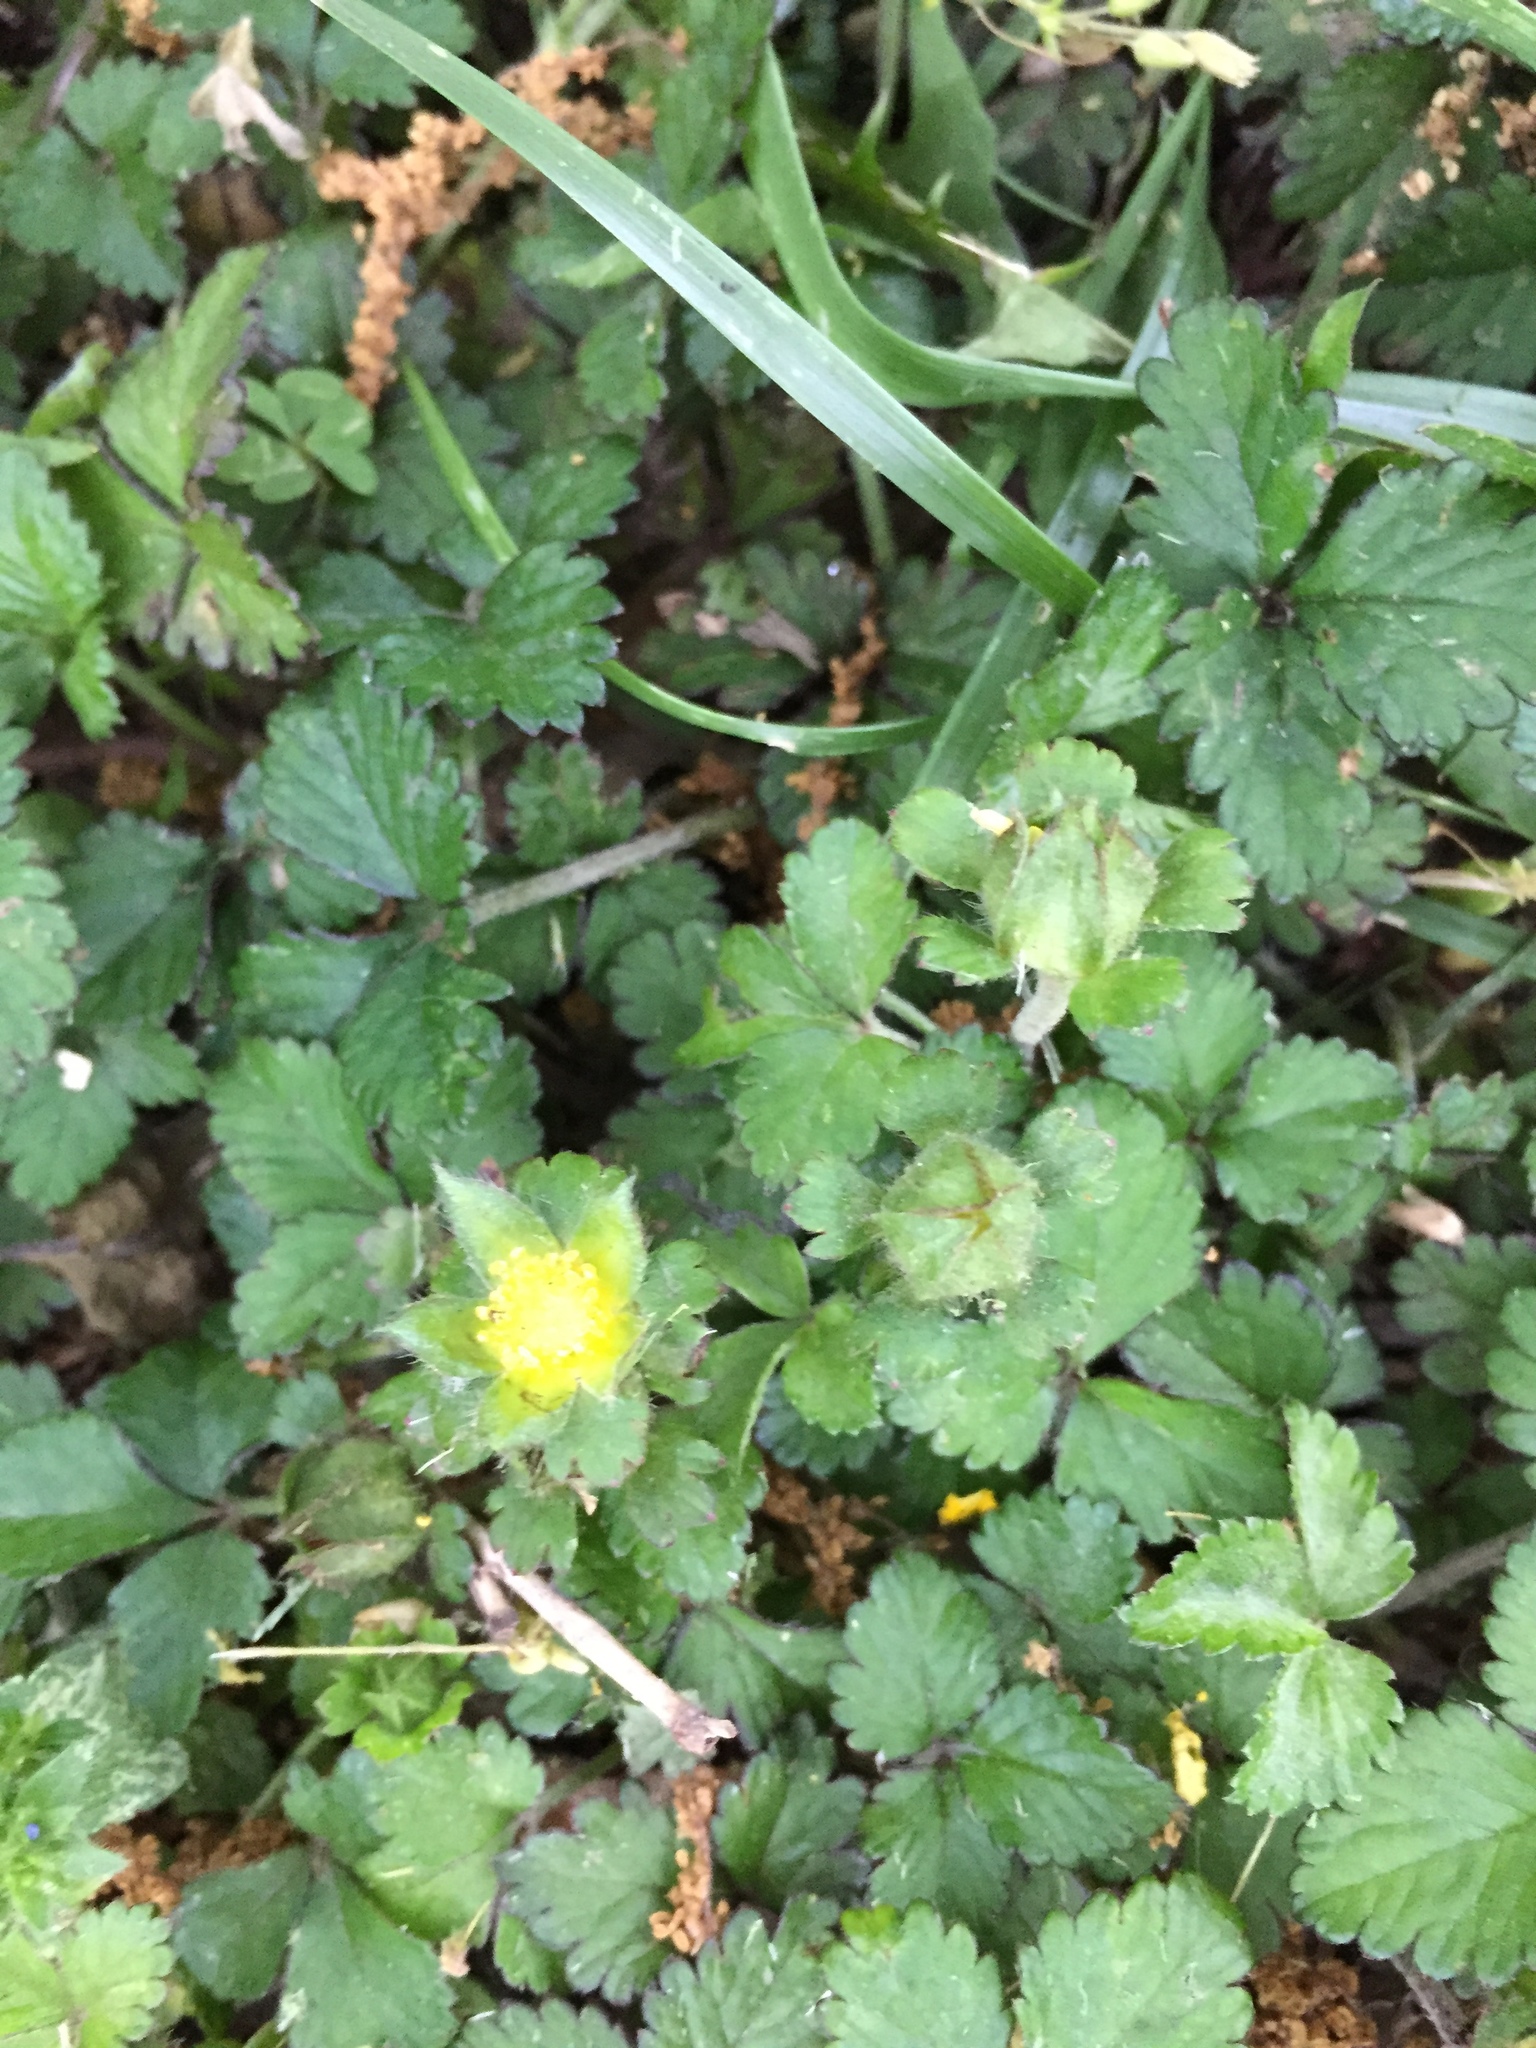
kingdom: Plantae
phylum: Tracheophyta
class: Magnoliopsida
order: Rosales
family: Rosaceae
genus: Potentilla
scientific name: Potentilla indica
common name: Yellow-flowered strawberry
